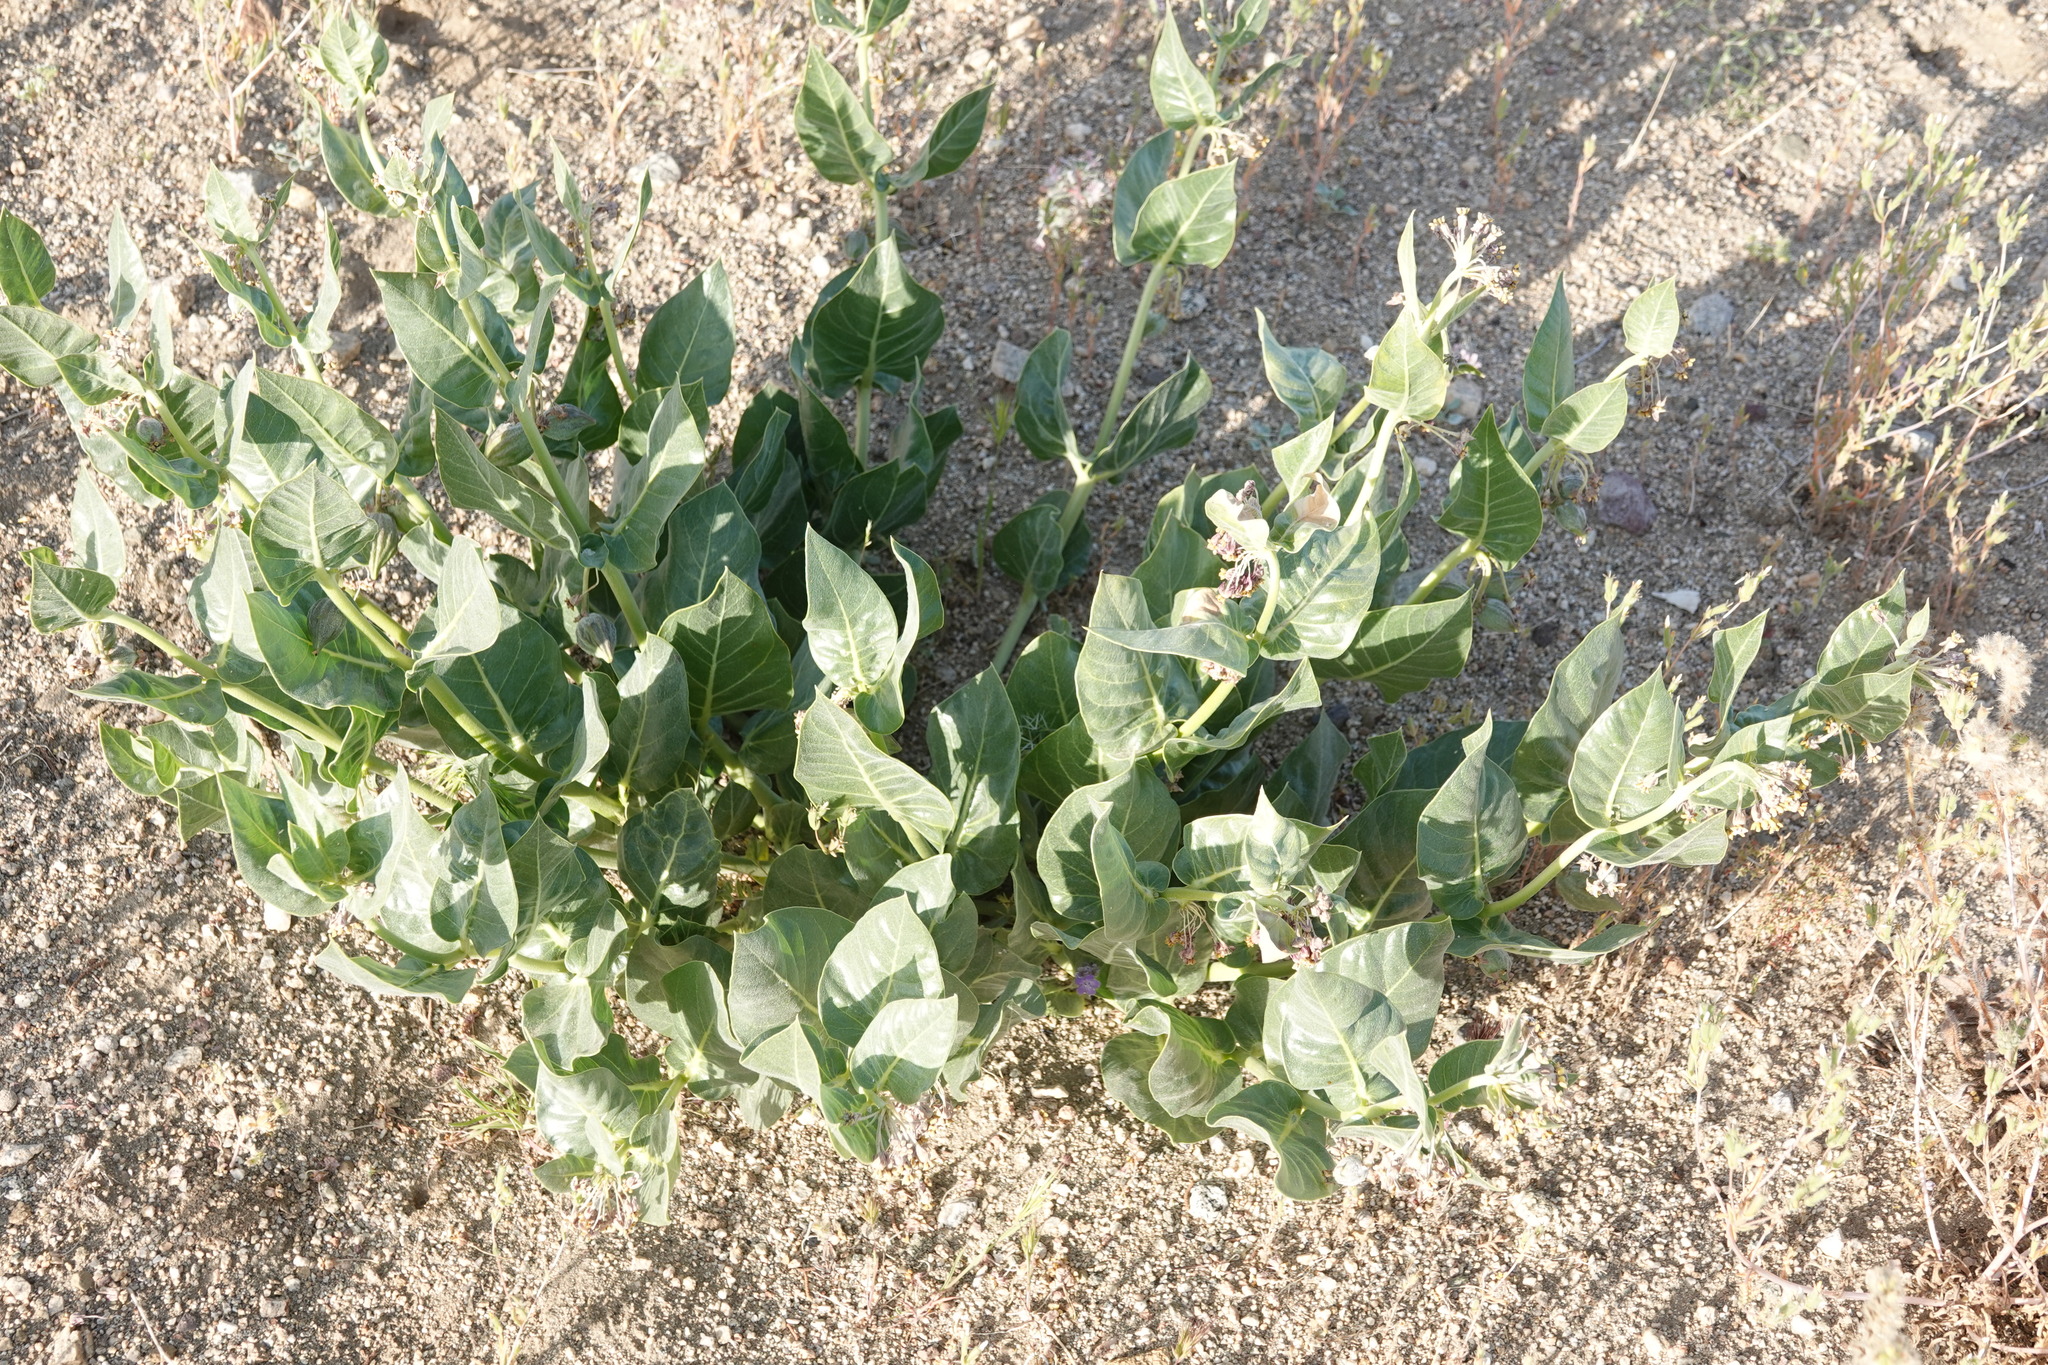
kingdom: Plantae
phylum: Tracheophyta
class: Magnoliopsida
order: Gentianales
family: Apocynaceae
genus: Asclepias
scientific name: Asclepias vestita
